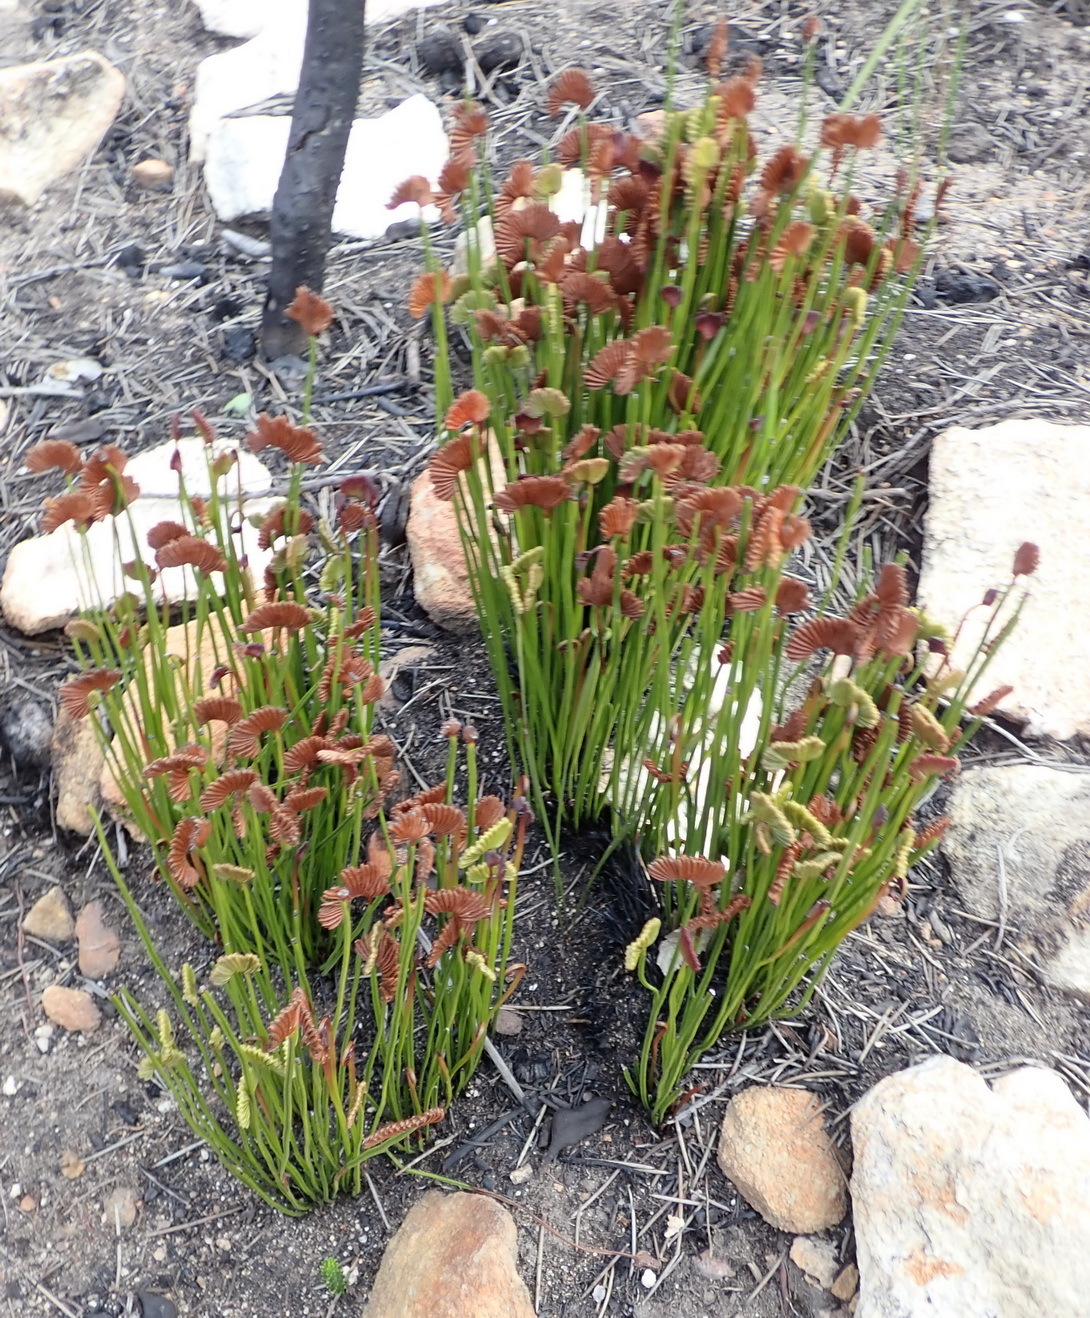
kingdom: Plantae
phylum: Tracheophyta
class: Polypodiopsida
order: Schizaeales
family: Schizaeaceae
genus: Schizaea
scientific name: Schizaea pectinata
